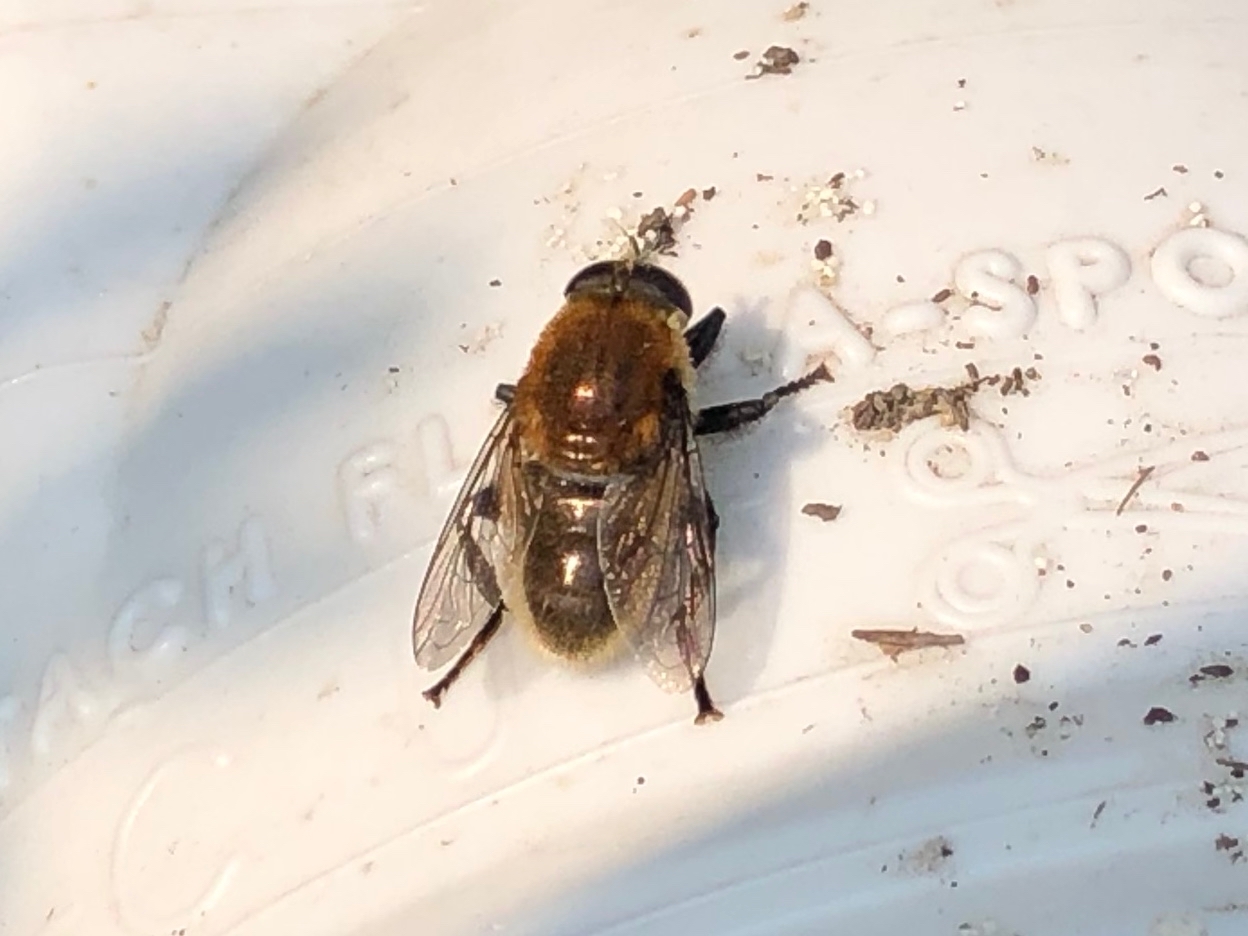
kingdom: Animalia
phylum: Arthropoda
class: Insecta
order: Diptera
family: Syrphidae
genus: Merodon
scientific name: Merodon equestris
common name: Greater bulb-fly
